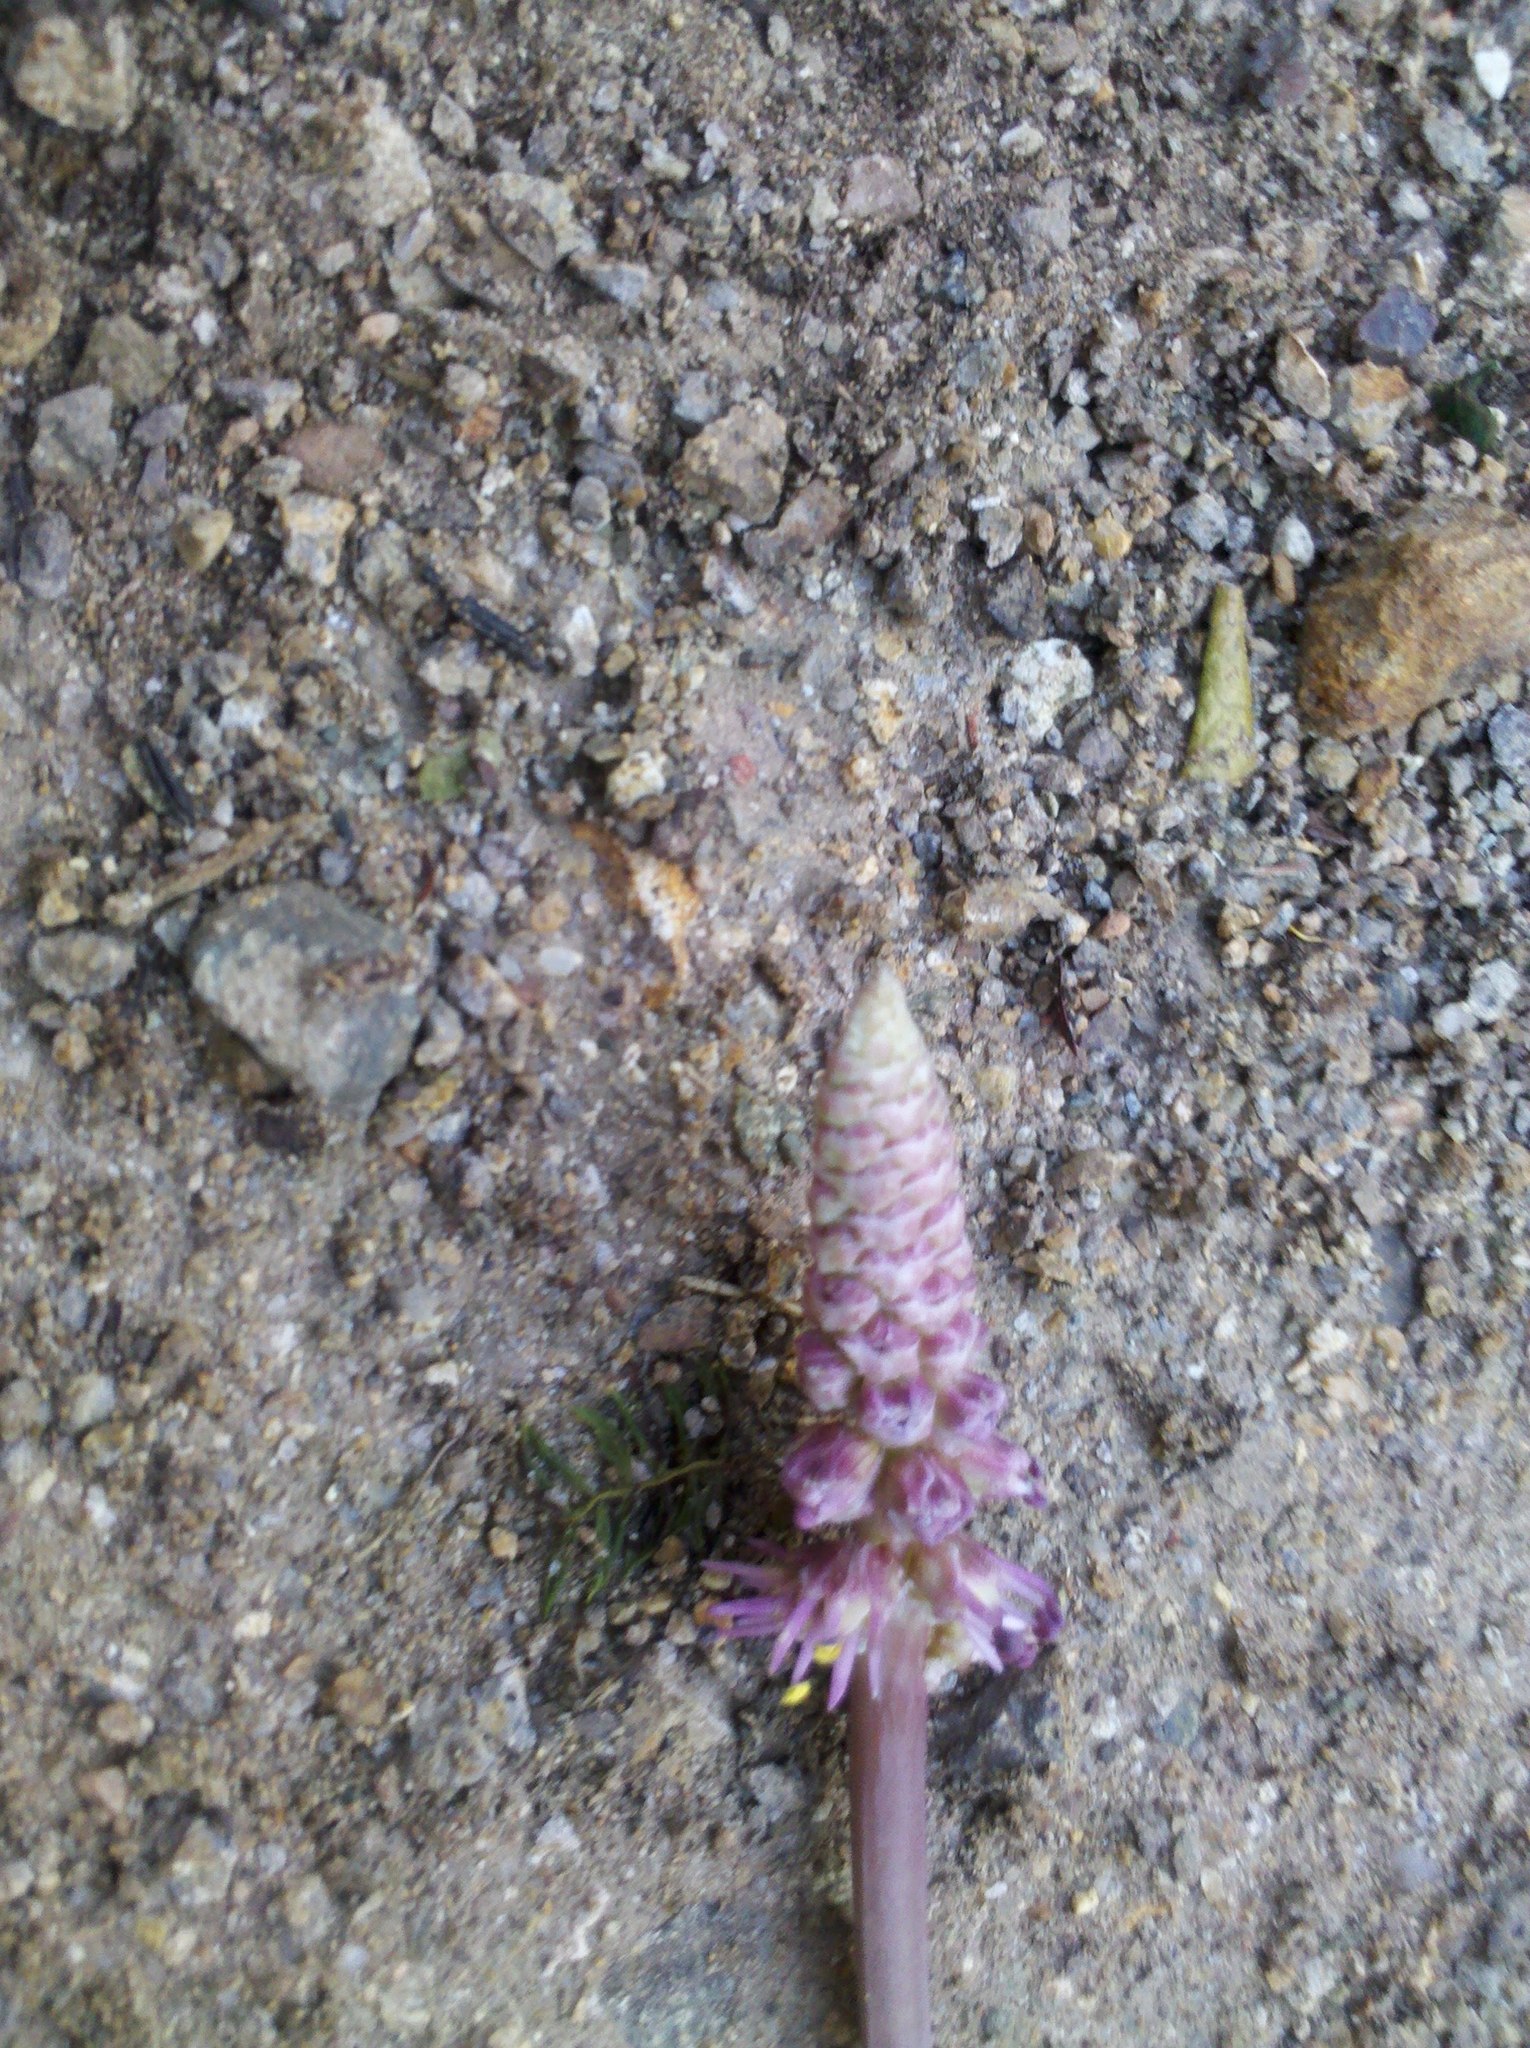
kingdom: Plantae
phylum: Tracheophyta
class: Liliopsida
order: Liliales
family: Melanthiaceae
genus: Schoenocaulon
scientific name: Schoenocaulon oaxacense
